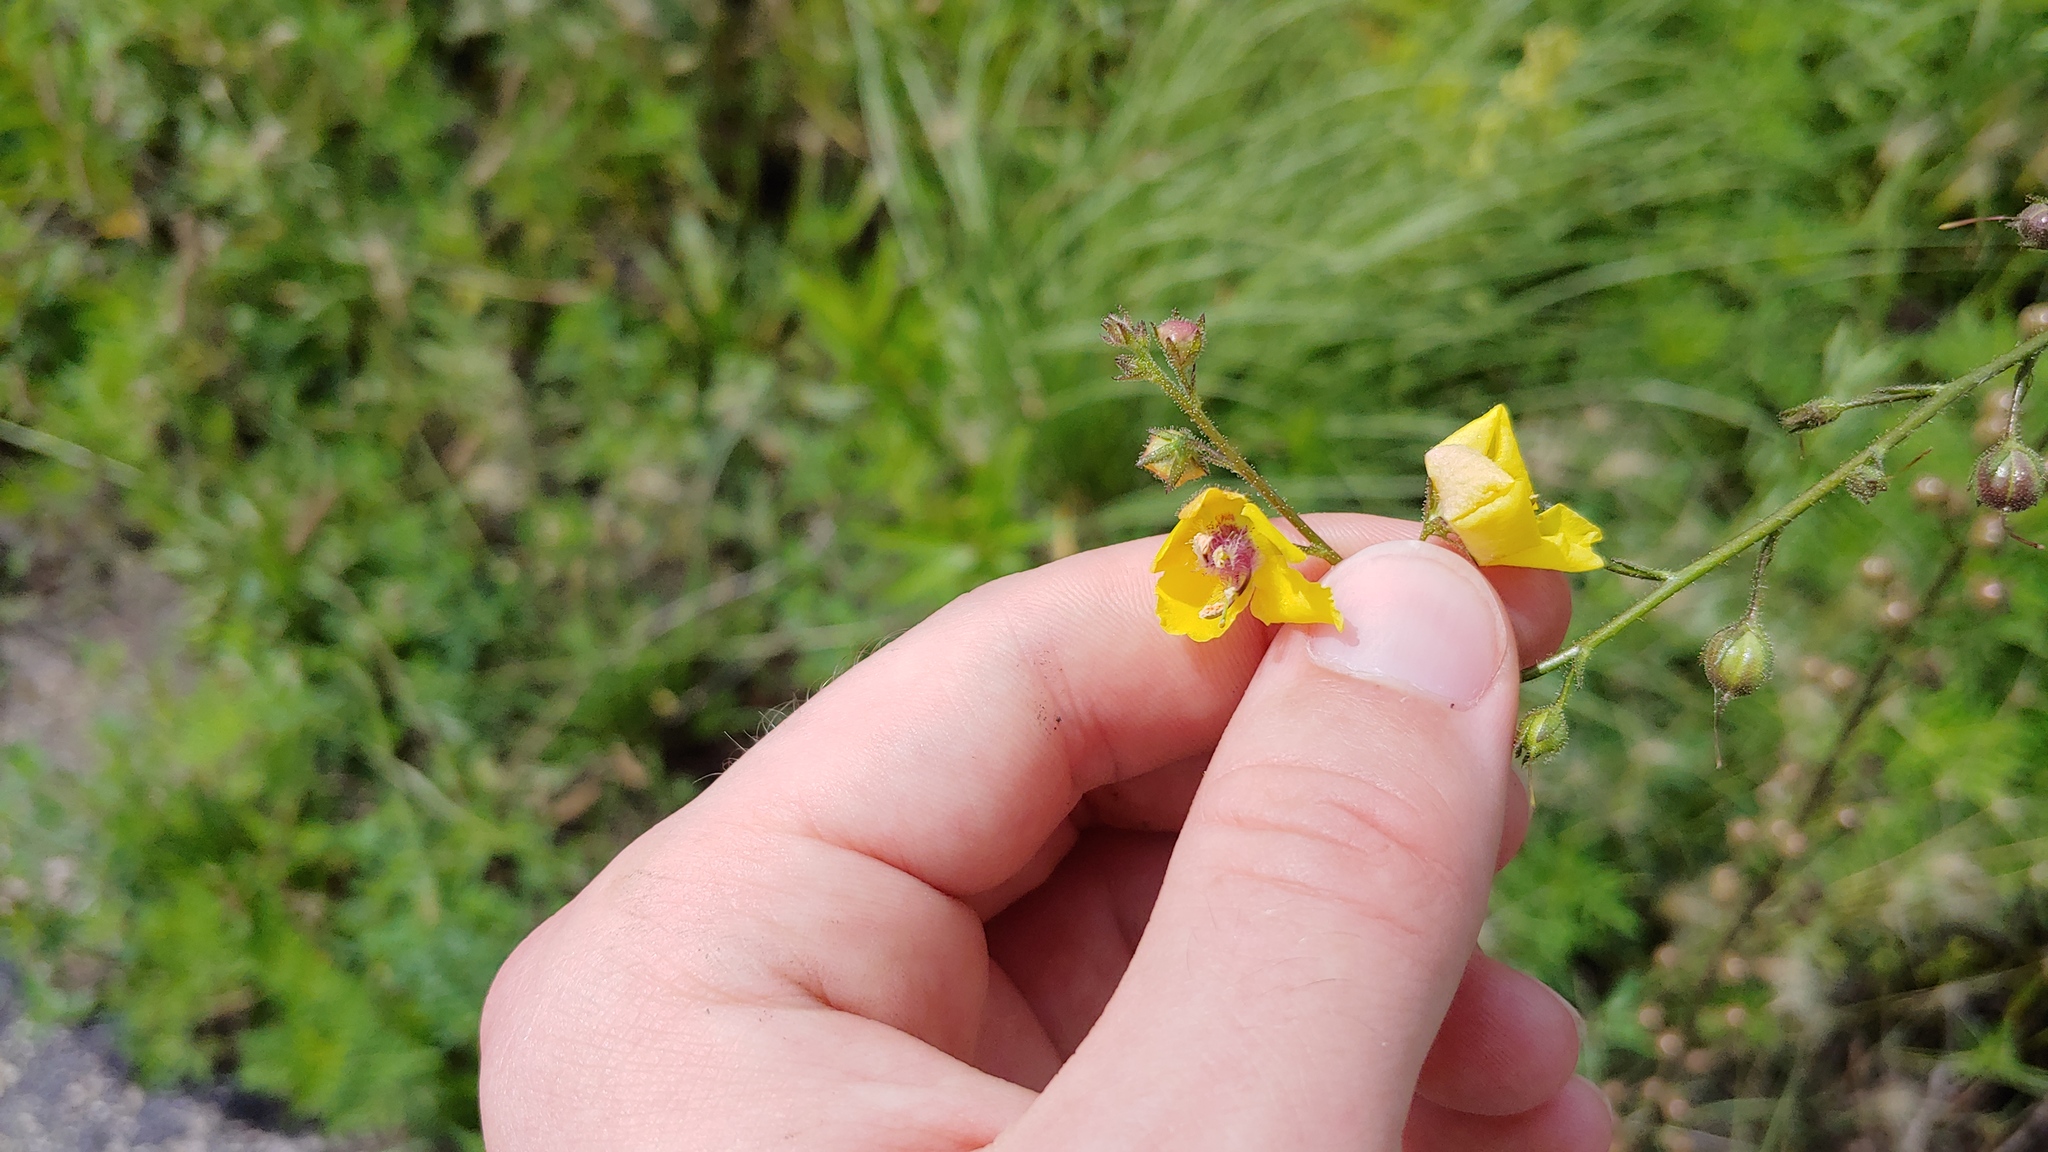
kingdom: Plantae
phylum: Tracheophyta
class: Magnoliopsida
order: Lamiales
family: Scrophulariaceae
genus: Verbascum
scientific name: Verbascum blattaria
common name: Moth mullein
